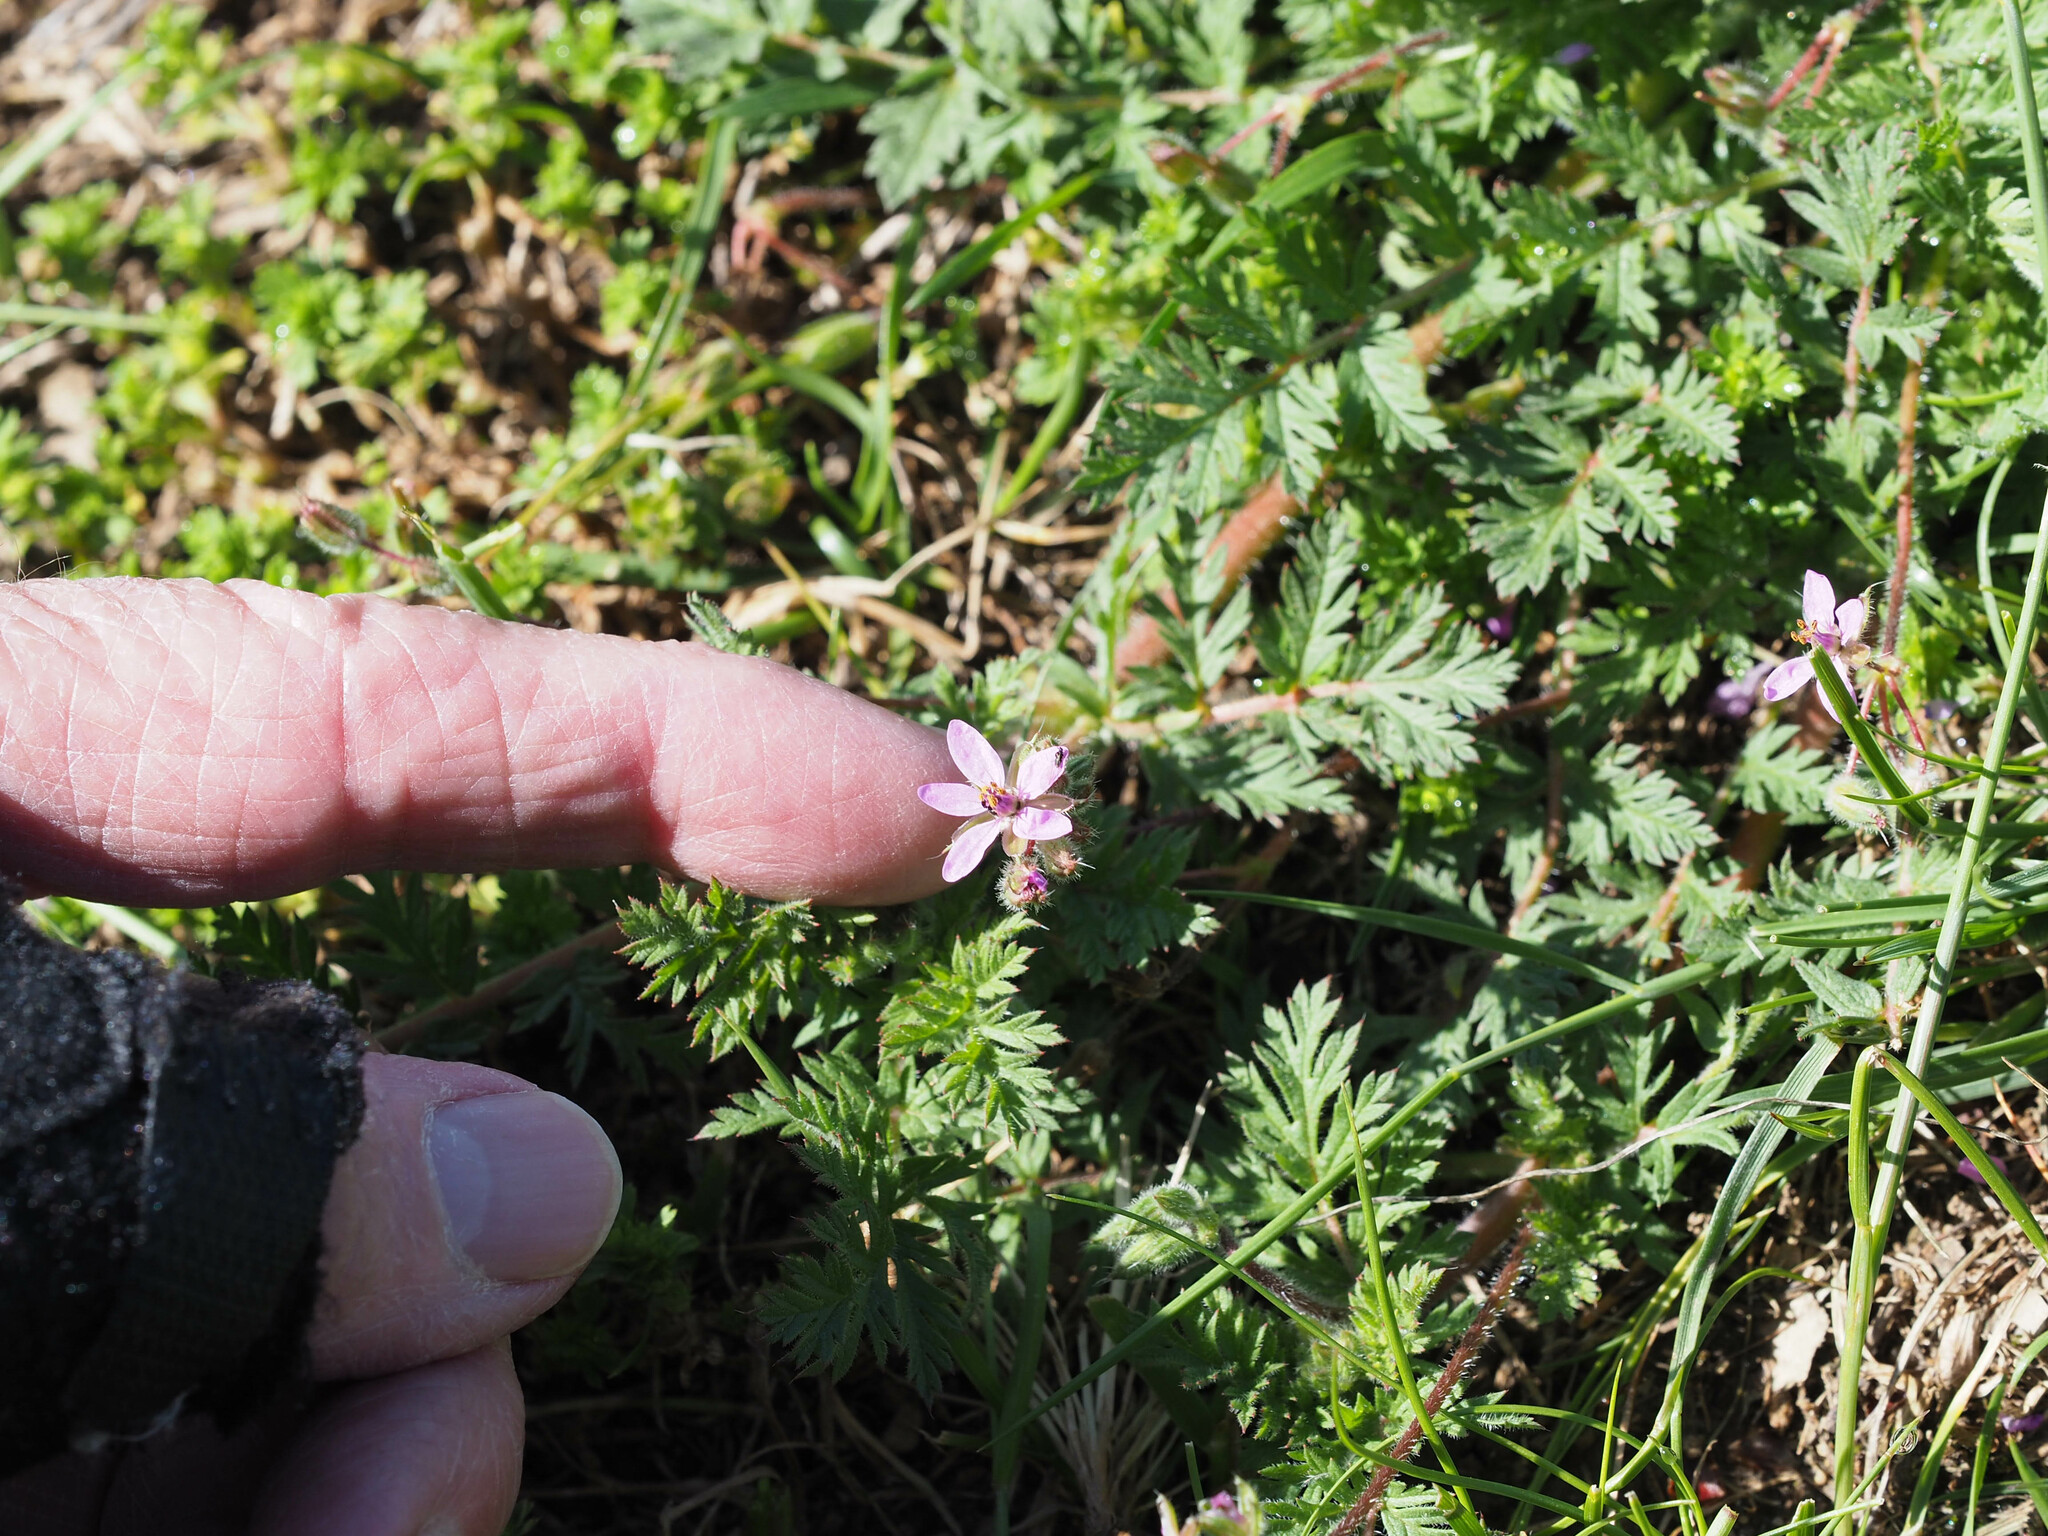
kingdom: Plantae
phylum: Tracheophyta
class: Magnoliopsida
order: Geraniales
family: Geraniaceae
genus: Erodium
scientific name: Erodium cicutarium
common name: Common stork's-bill
